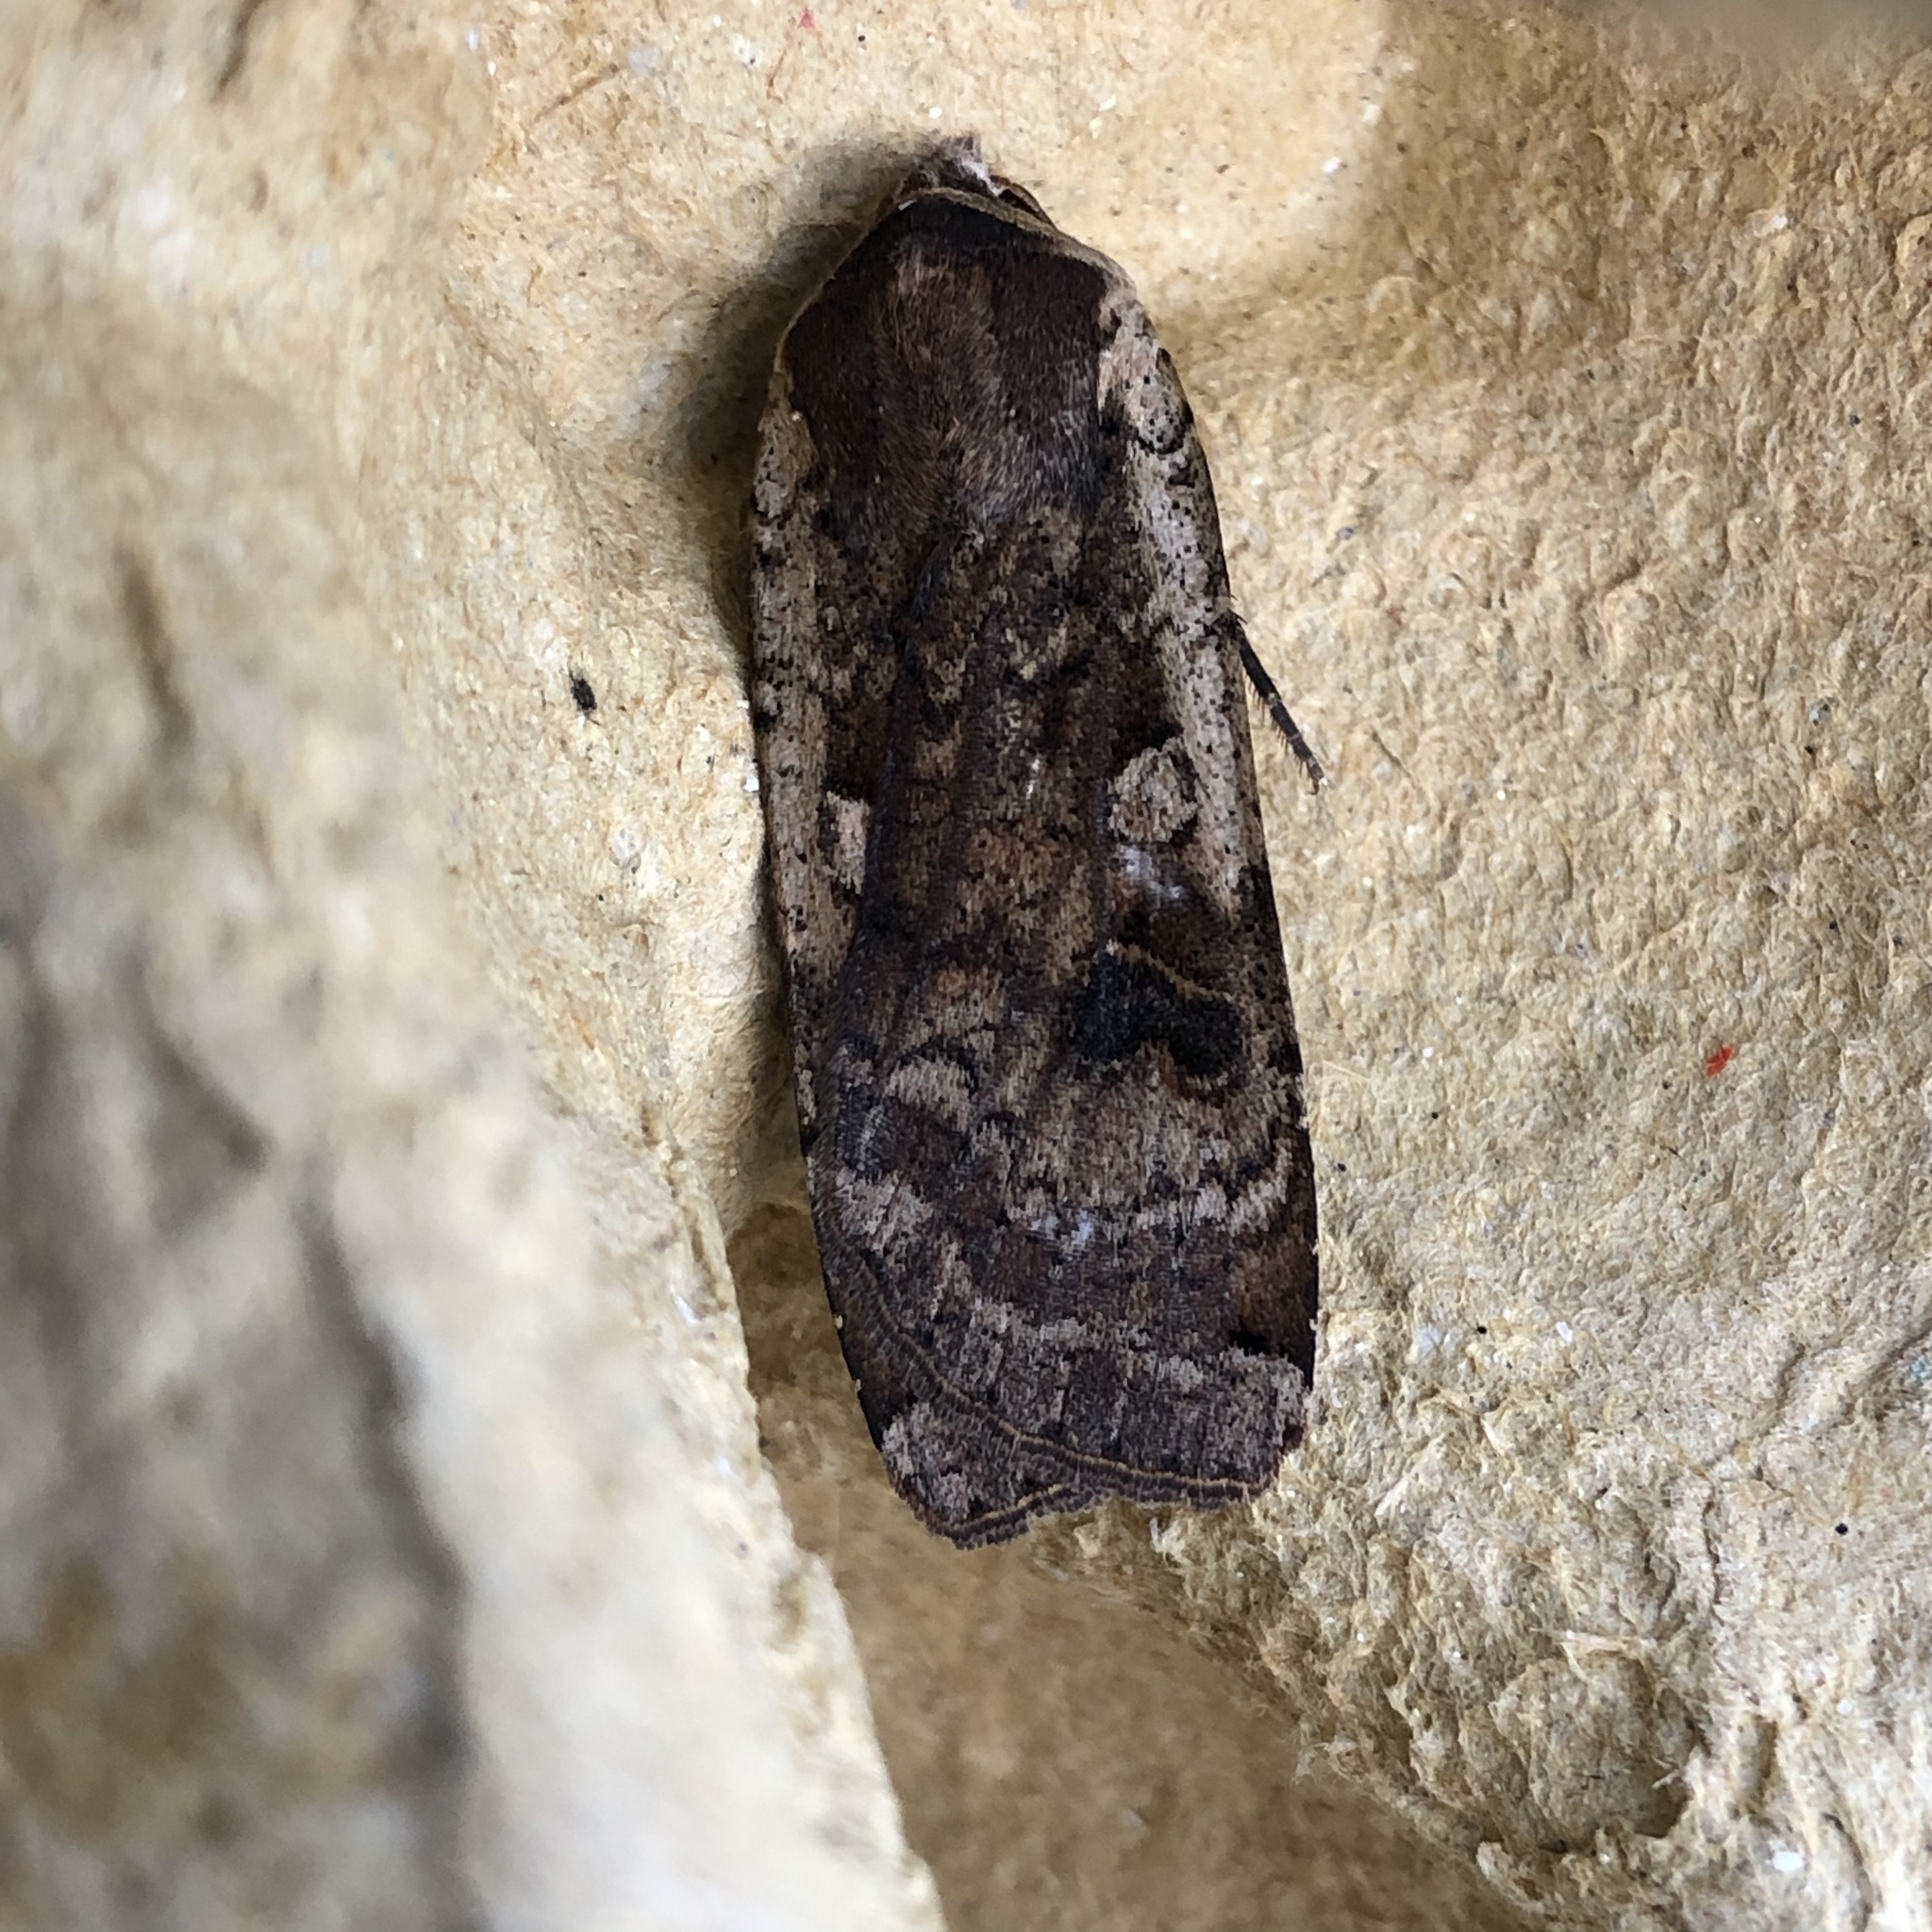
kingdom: Animalia
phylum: Arthropoda
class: Insecta
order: Lepidoptera
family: Noctuidae
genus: Noctua
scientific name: Noctua pronuba
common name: Large yellow underwing
